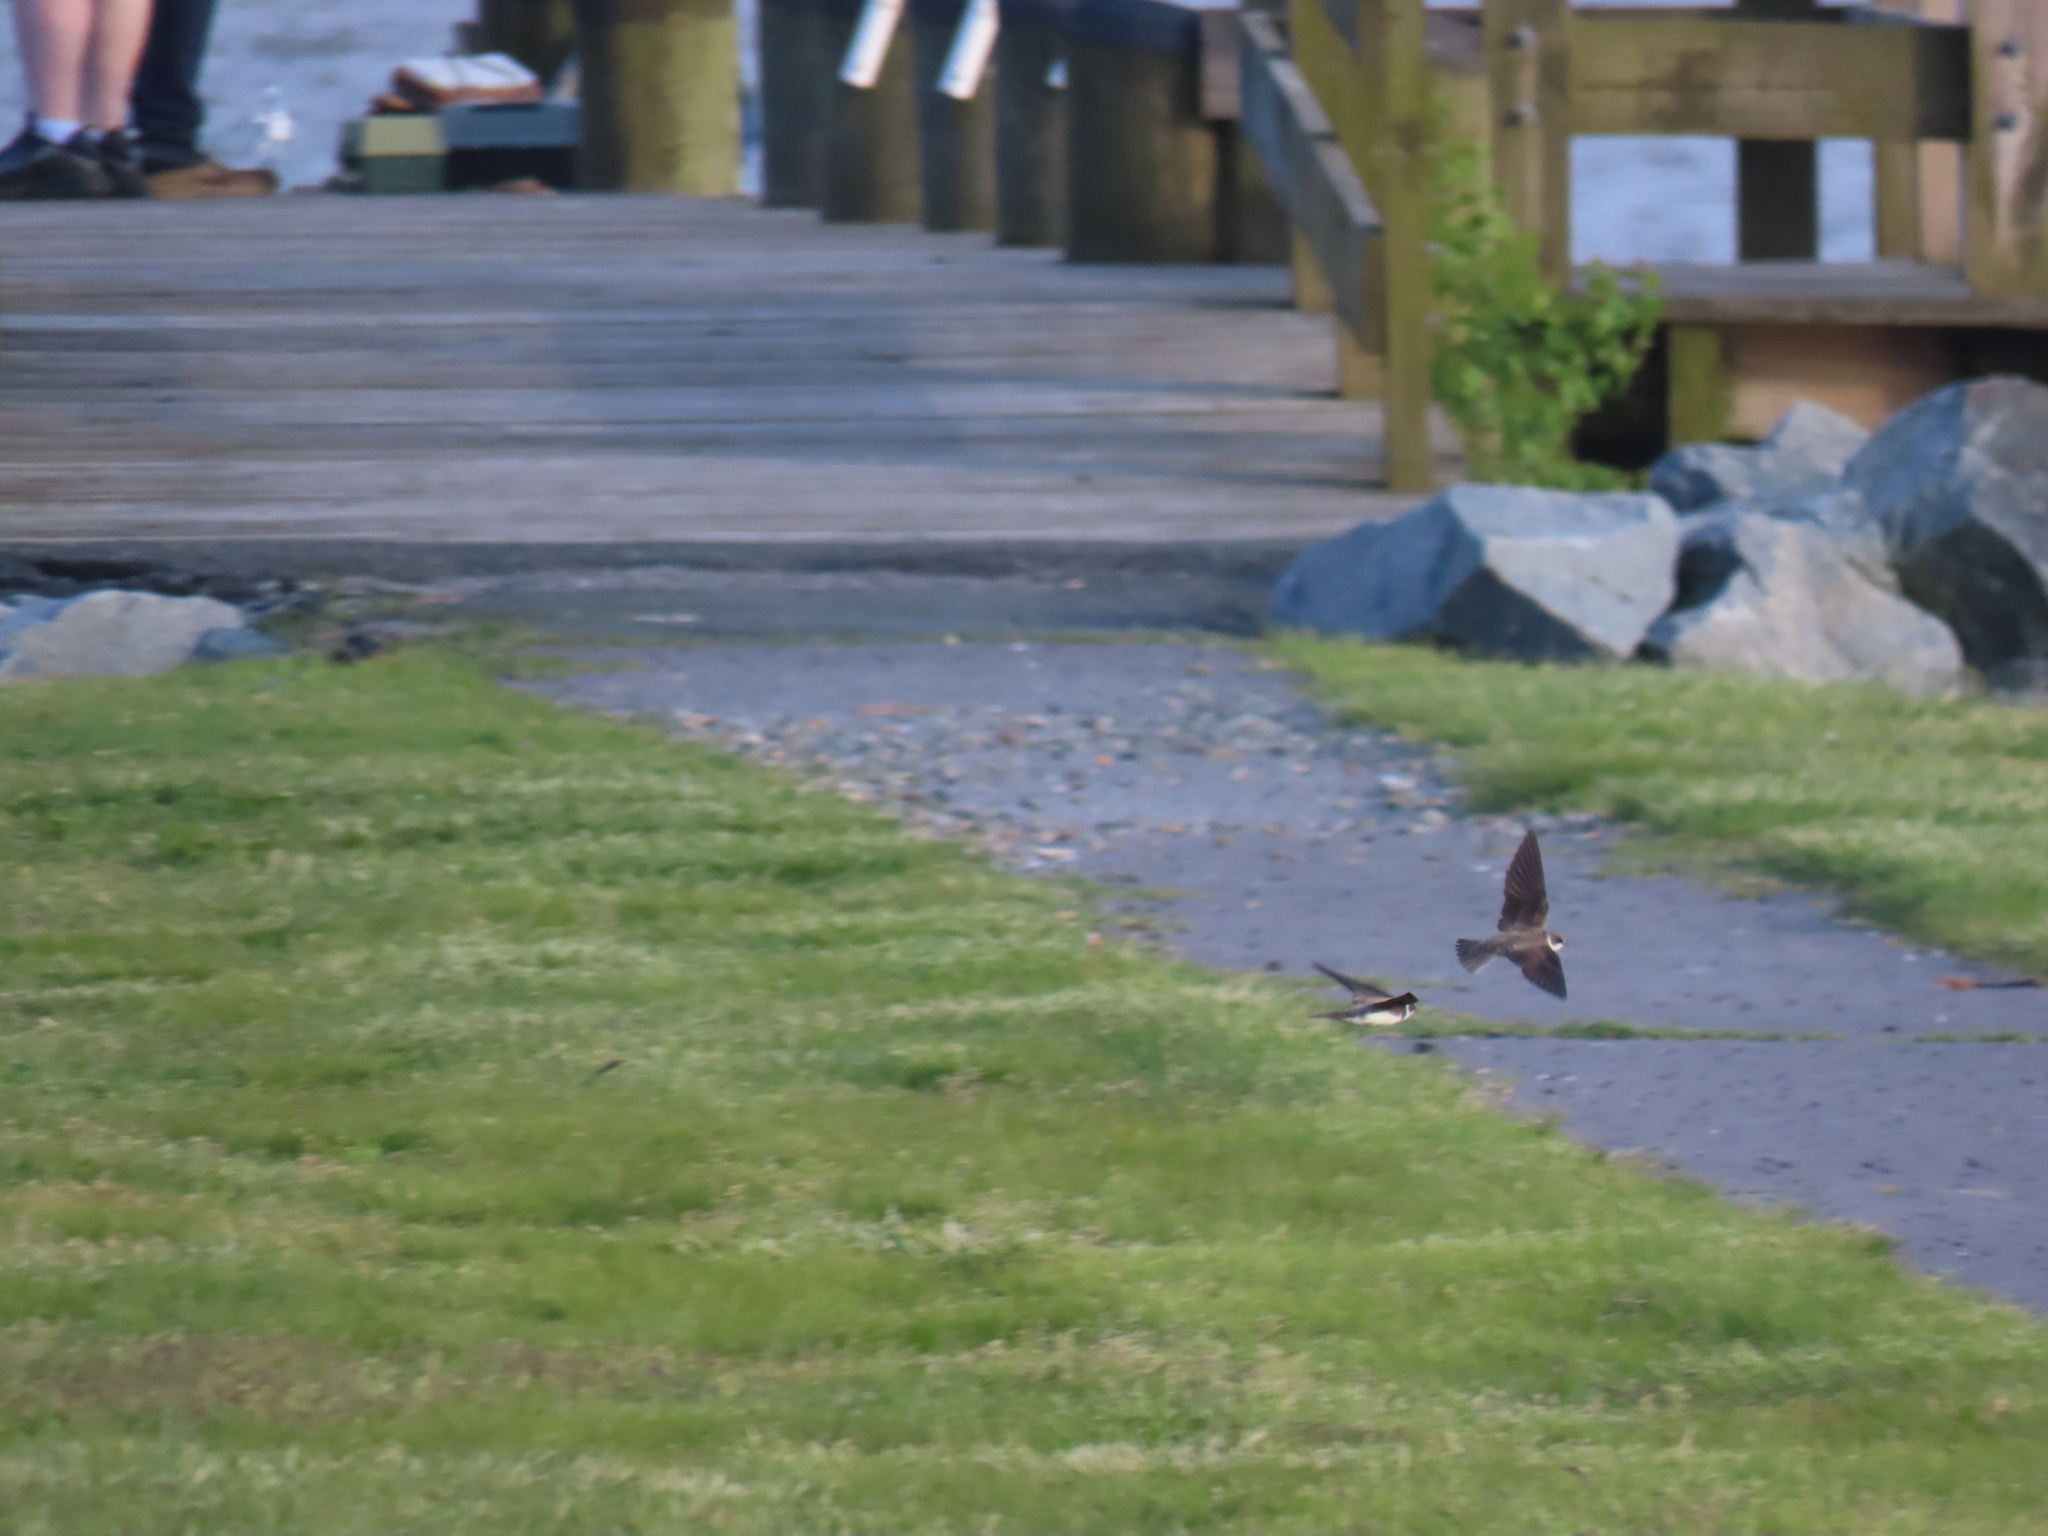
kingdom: Animalia
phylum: Chordata
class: Aves
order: Passeriformes
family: Hirundinidae
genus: Riparia
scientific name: Riparia riparia
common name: Sand martin
